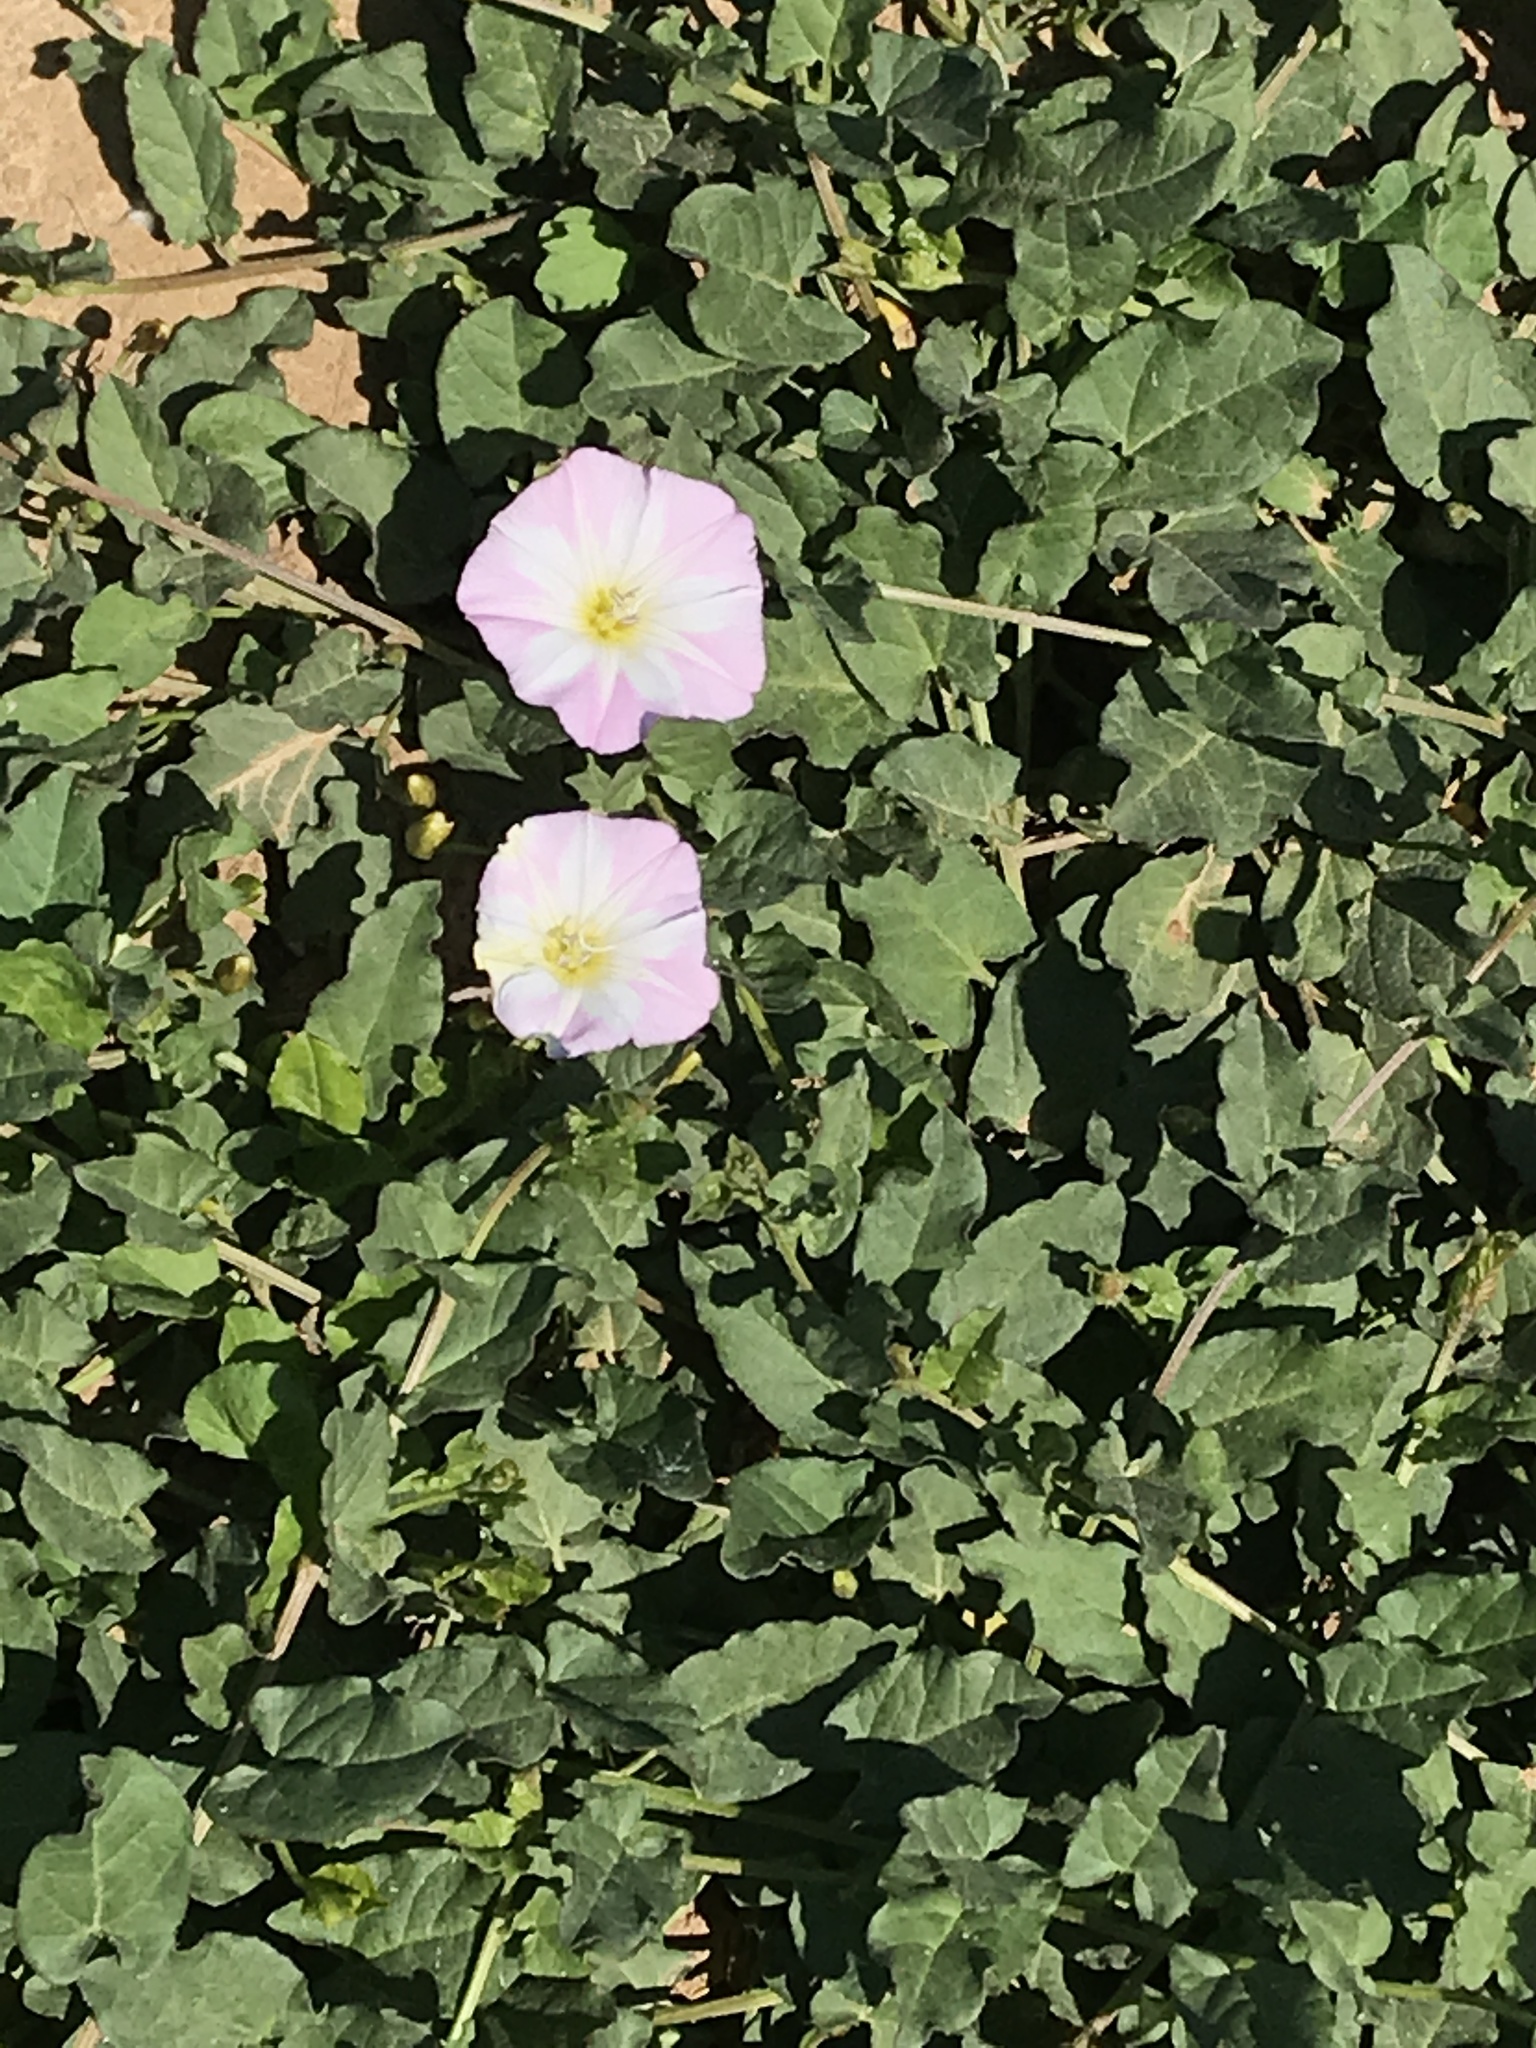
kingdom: Plantae
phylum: Tracheophyta
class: Magnoliopsida
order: Solanales
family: Convolvulaceae
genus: Convolvulus
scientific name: Convolvulus arvensis
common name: Field bindweed
